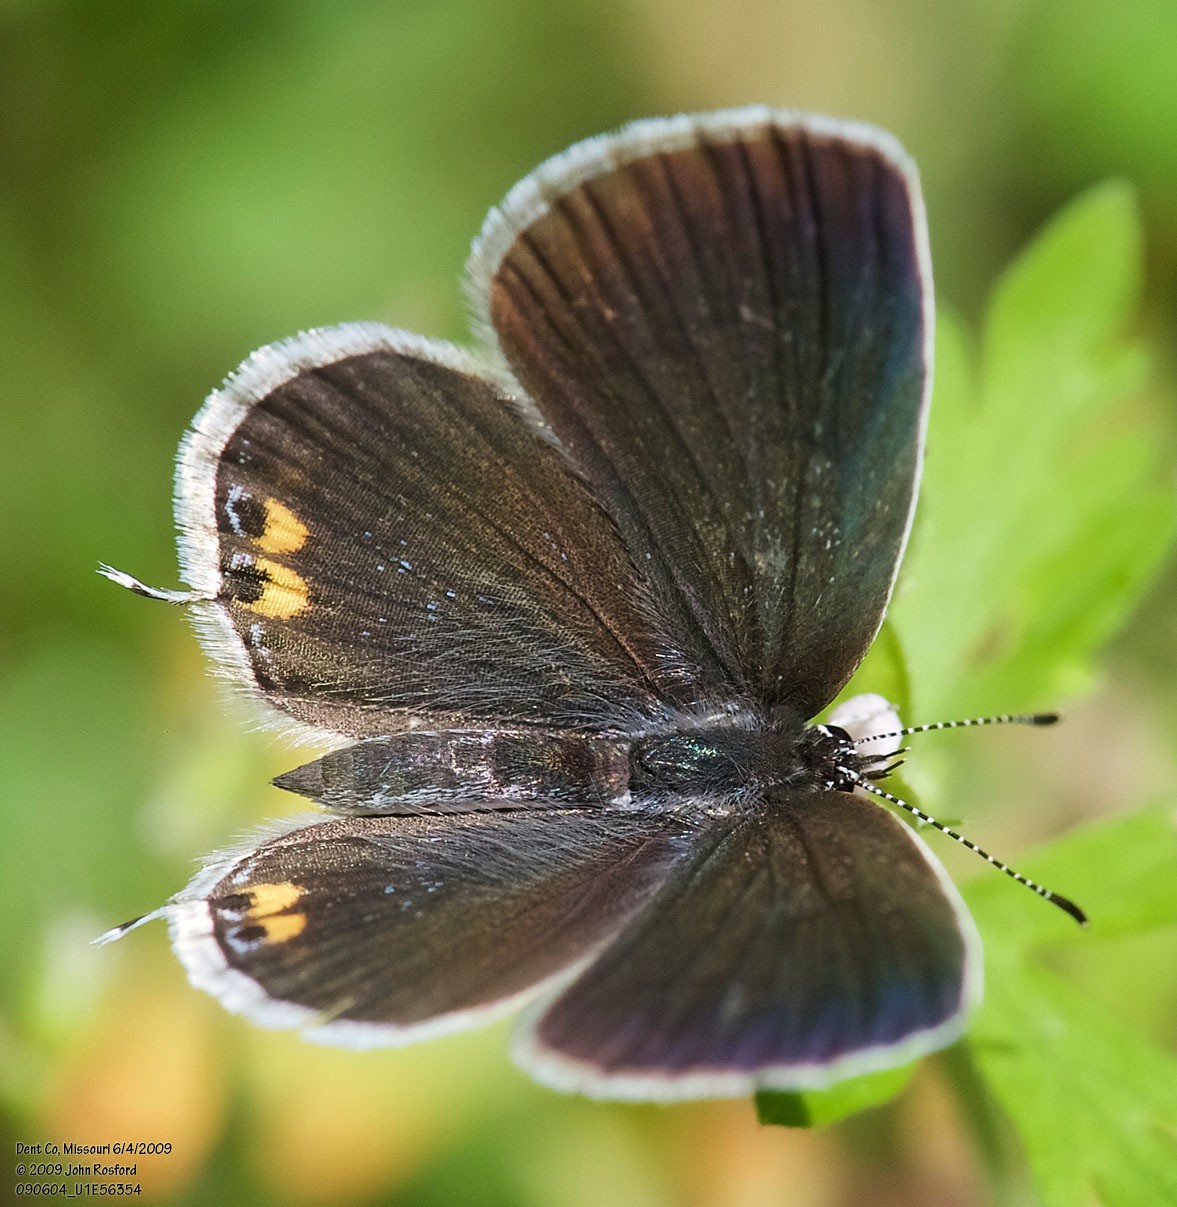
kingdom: Animalia
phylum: Arthropoda
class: Insecta
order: Lepidoptera
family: Lycaenidae
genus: Elkalyce
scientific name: Elkalyce comyntas
